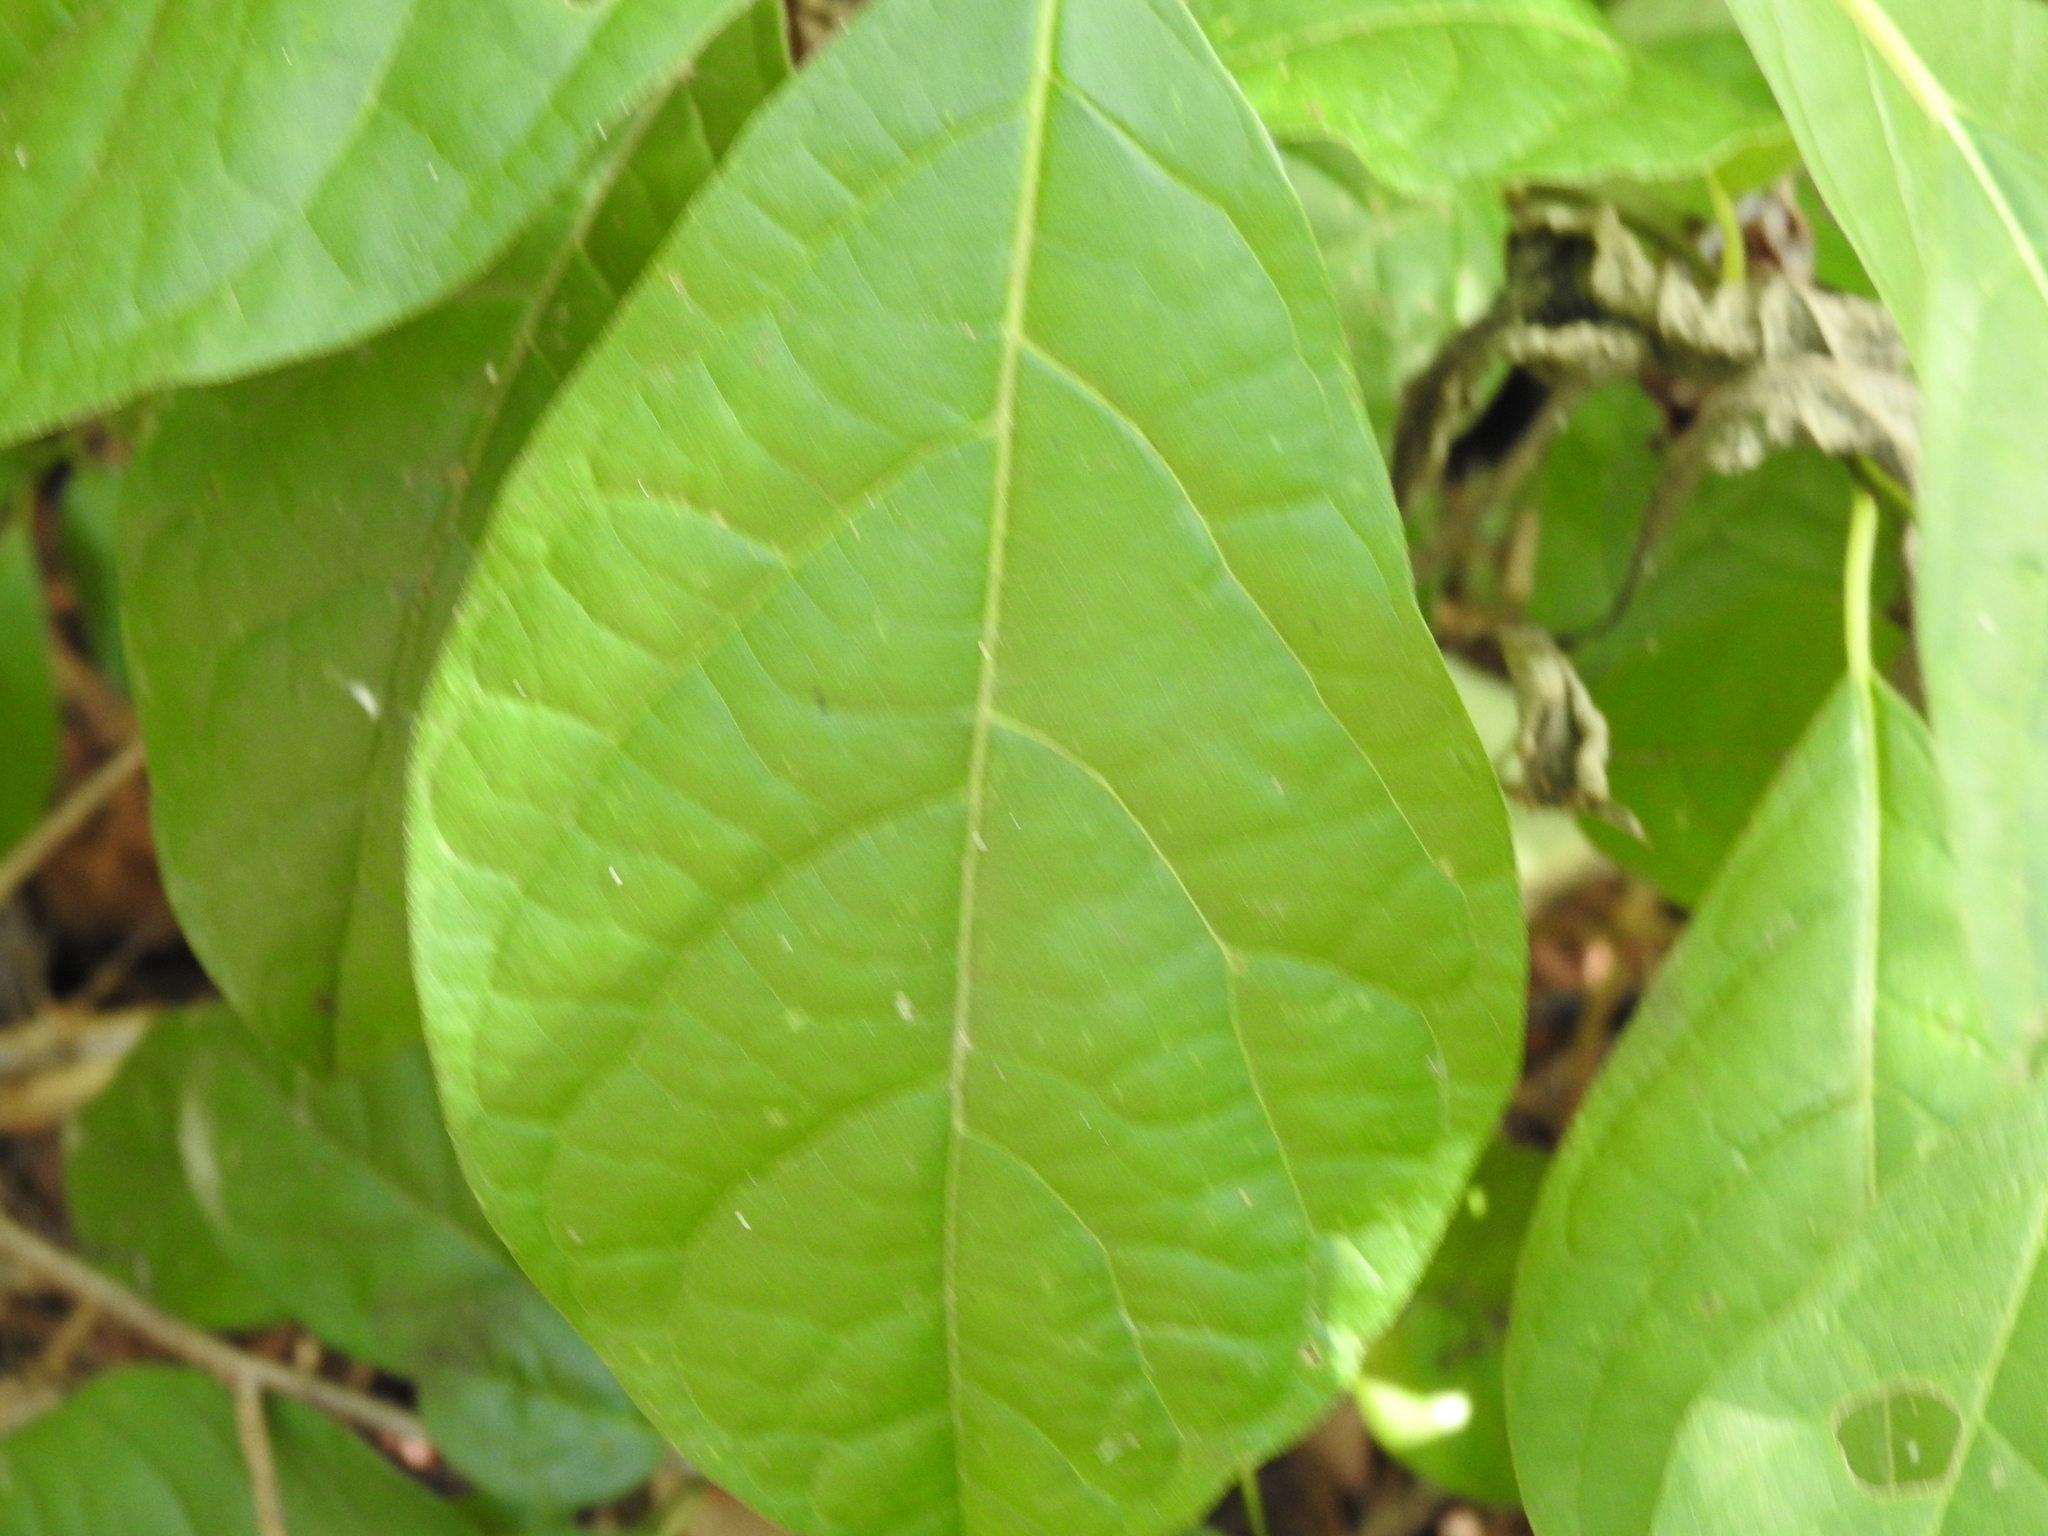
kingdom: Plantae
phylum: Tracheophyta
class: Magnoliopsida
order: Laurales
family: Lauraceae
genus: Lindera
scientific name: Lindera benzoin
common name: Spicebush
